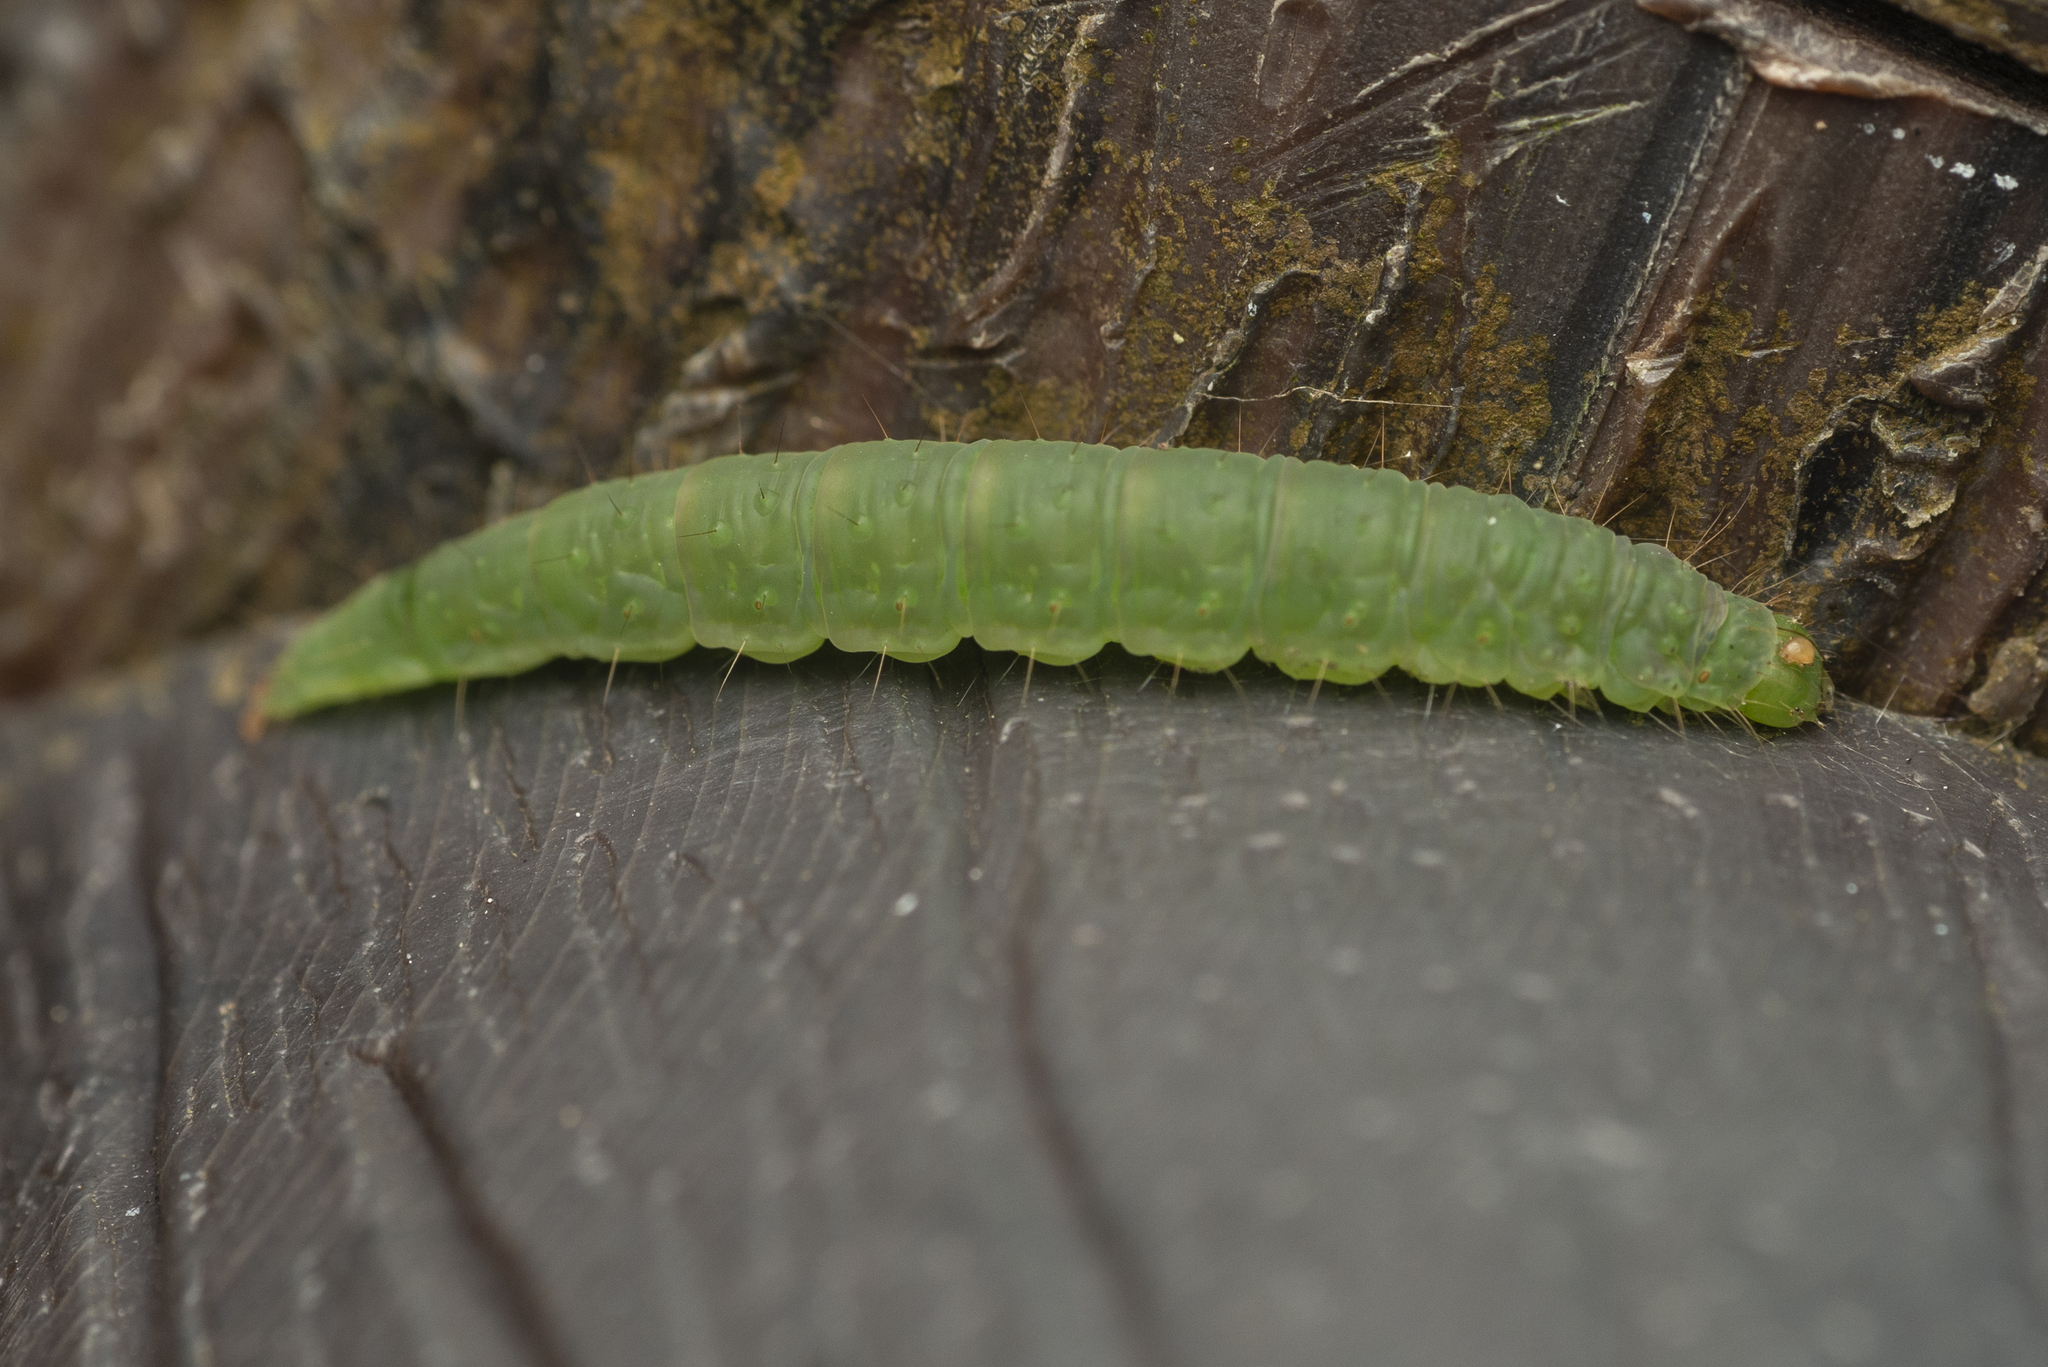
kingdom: Animalia
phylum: Arthropoda
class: Insecta
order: Lepidoptera
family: Immidae
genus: Imma
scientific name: Imma mylias
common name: Moth
